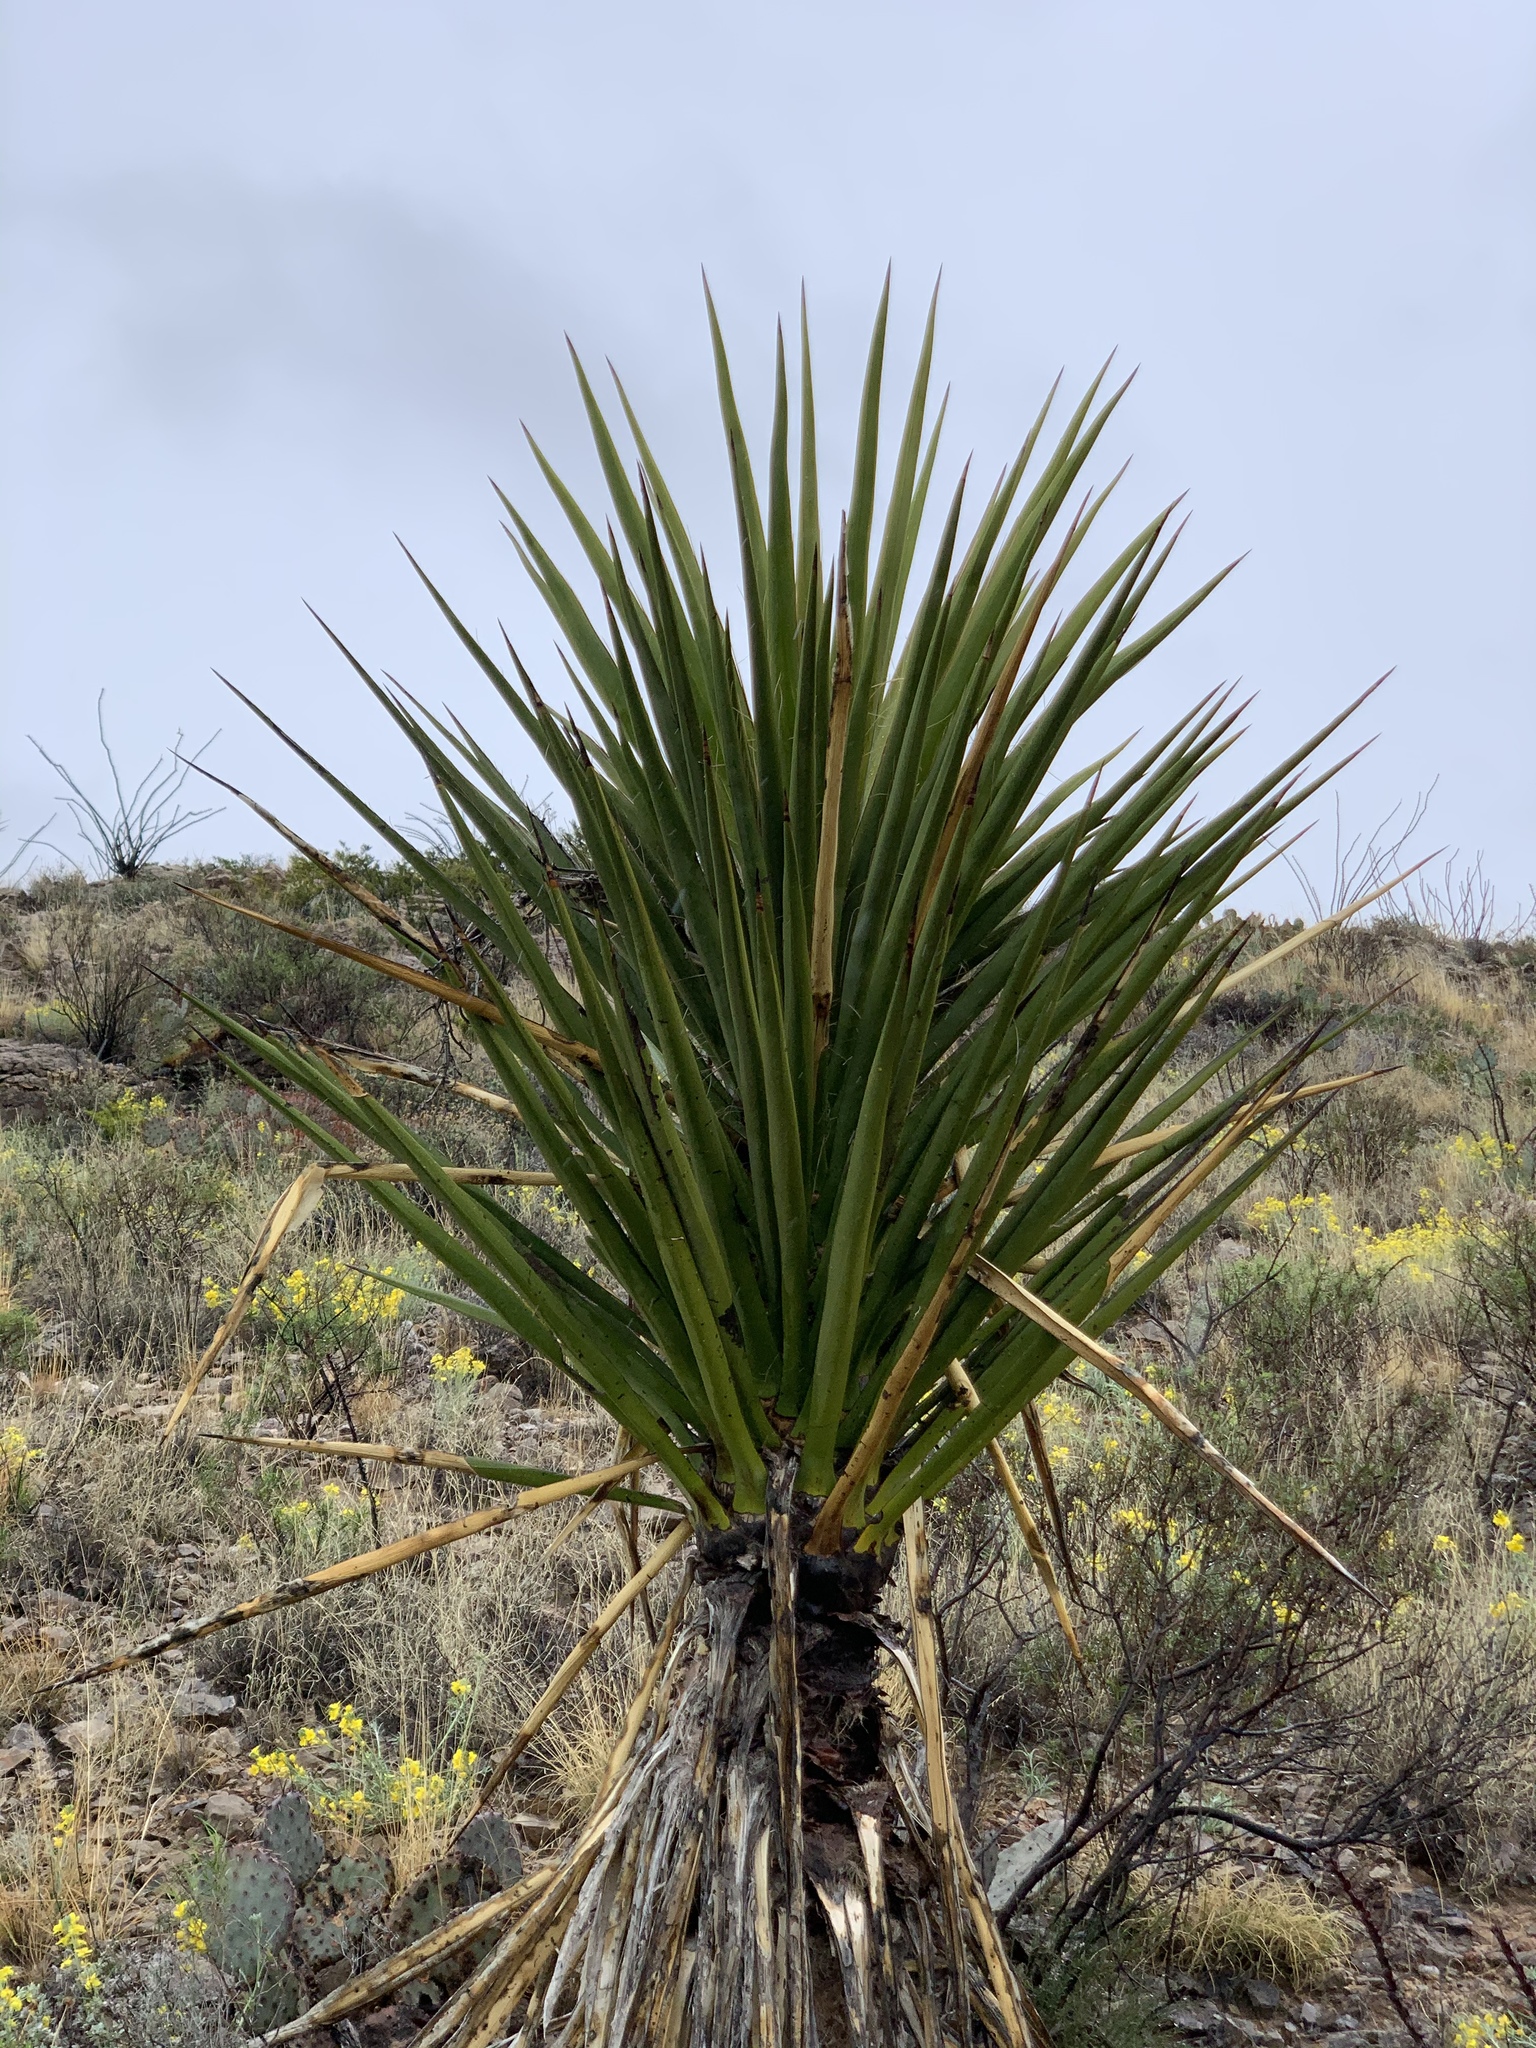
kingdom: Plantae
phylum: Tracheophyta
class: Liliopsida
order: Asparagales
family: Asparagaceae
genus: Yucca
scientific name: Yucca treculiana
